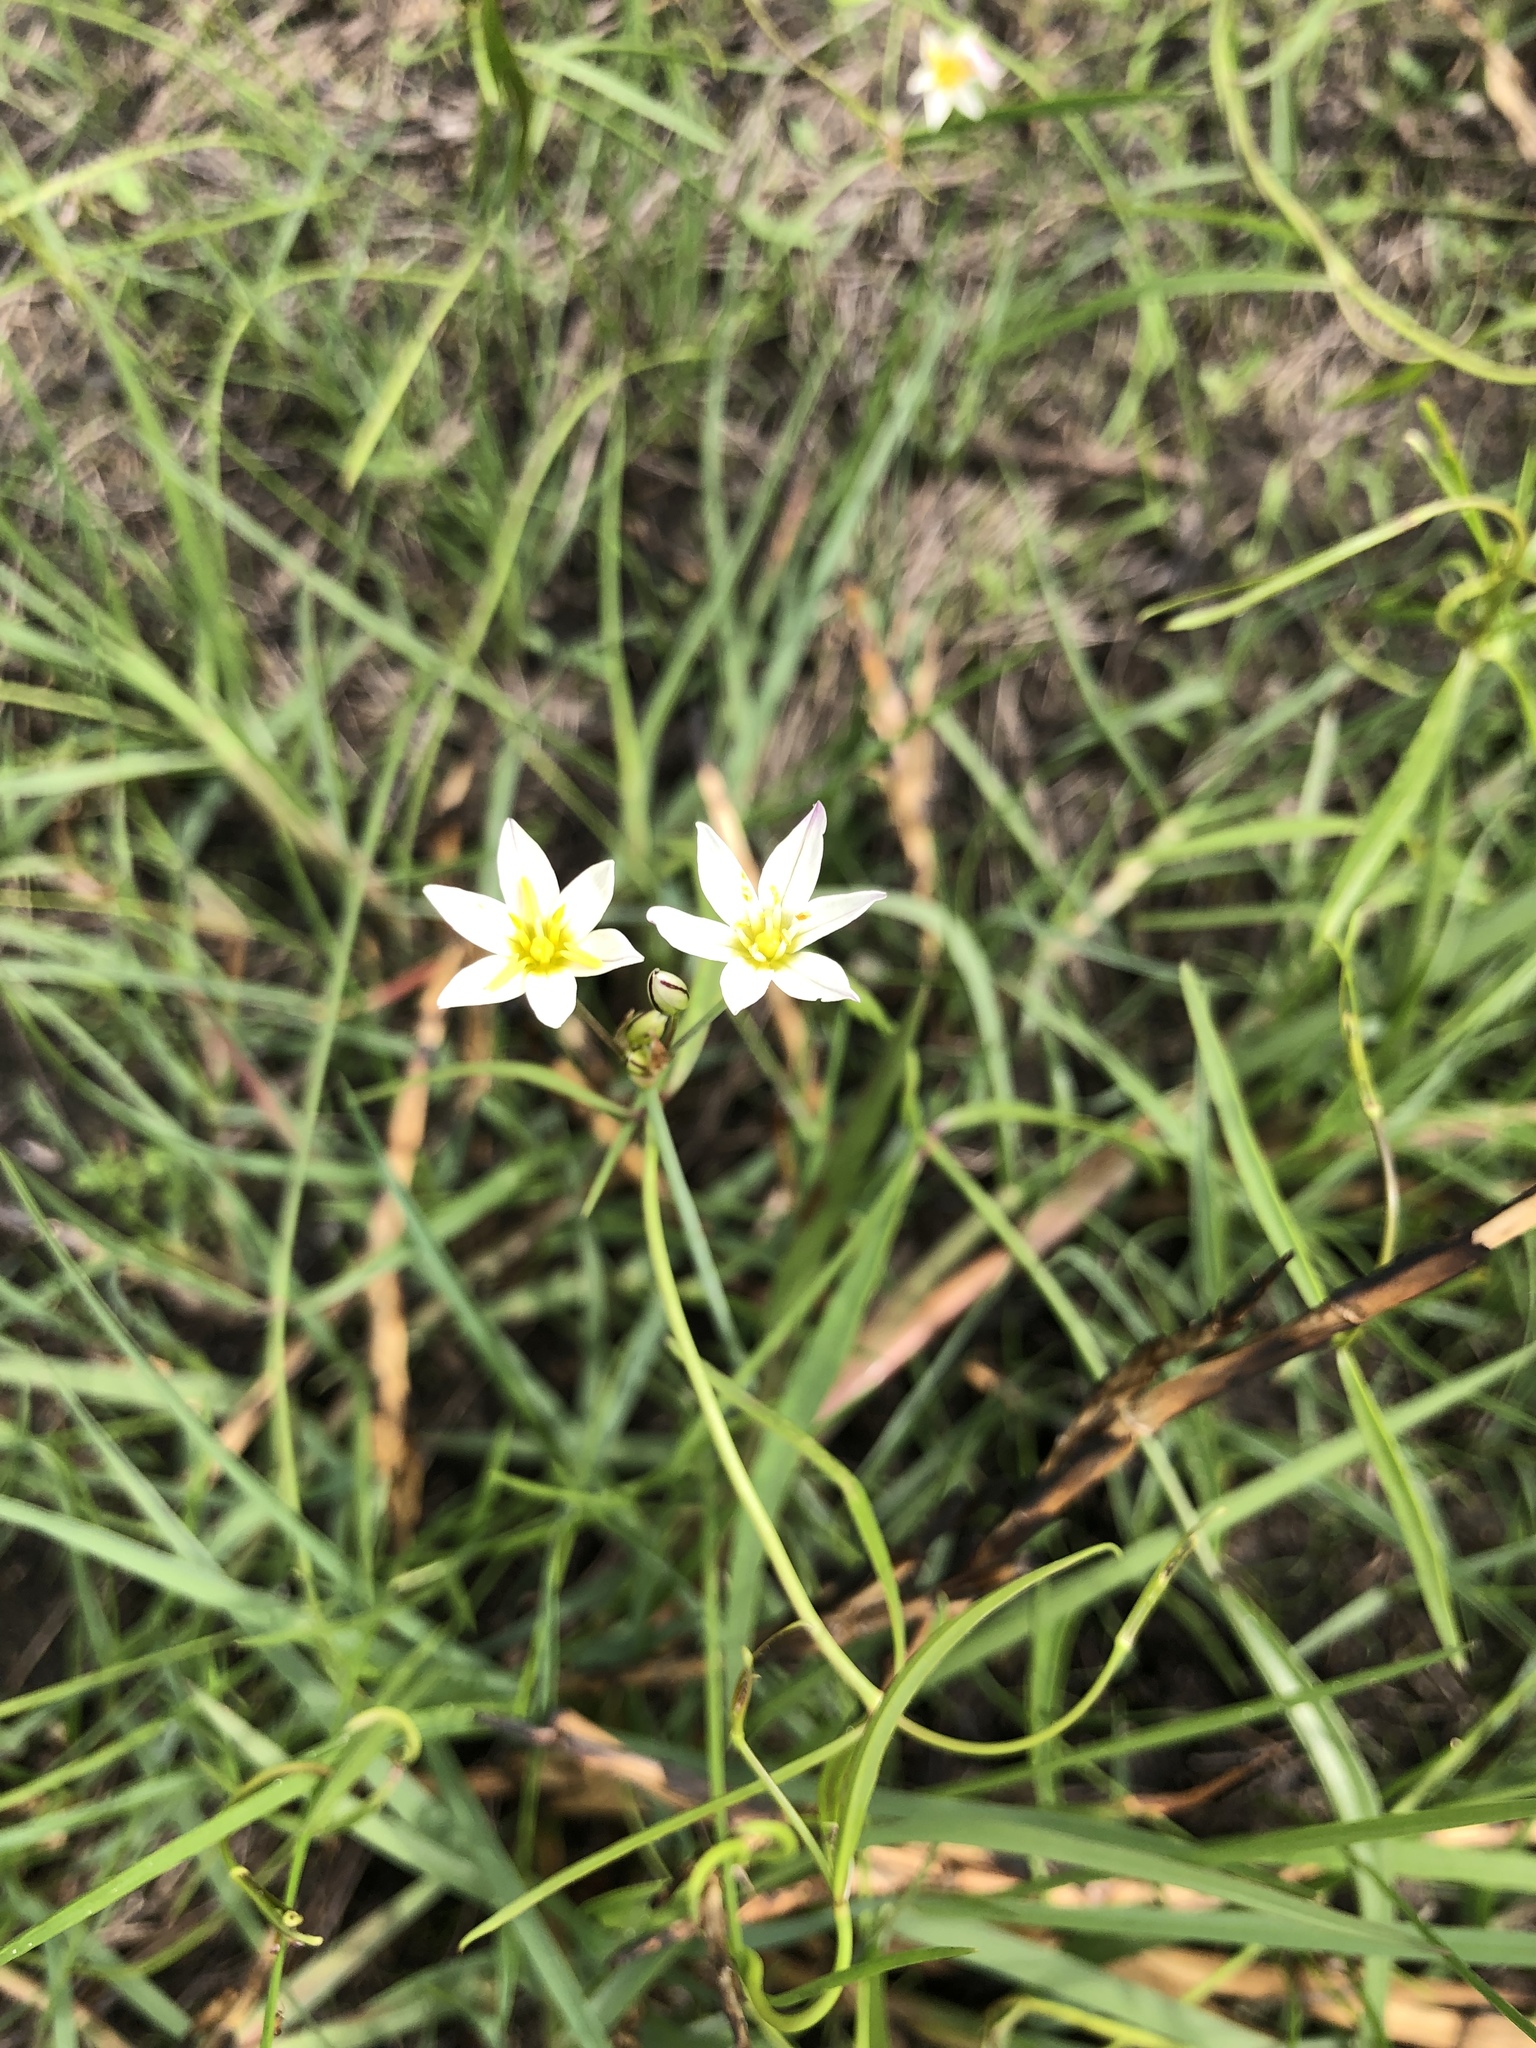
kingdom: Plantae
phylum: Tracheophyta
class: Liliopsida
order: Asparagales
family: Amaryllidaceae
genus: Nothoscordum
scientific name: Nothoscordum bivalve
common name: Crow-poison
